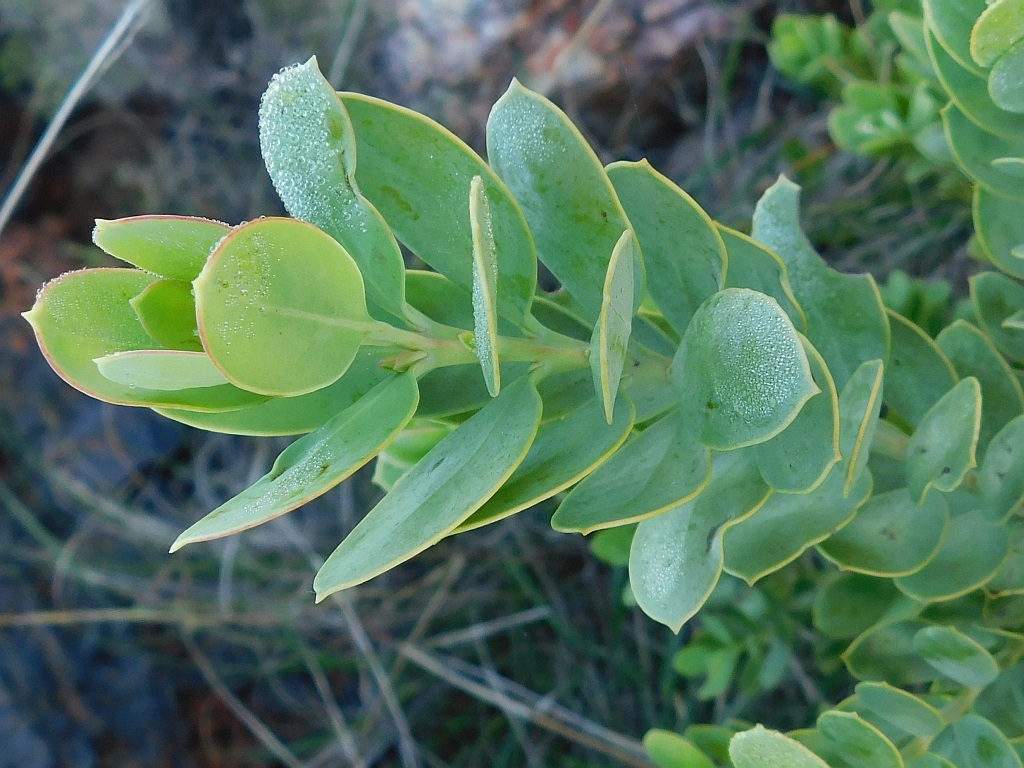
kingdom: Plantae
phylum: Tracheophyta
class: Magnoliopsida
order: Santalales
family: Santalaceae
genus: Osyris
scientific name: Osyris compressa
